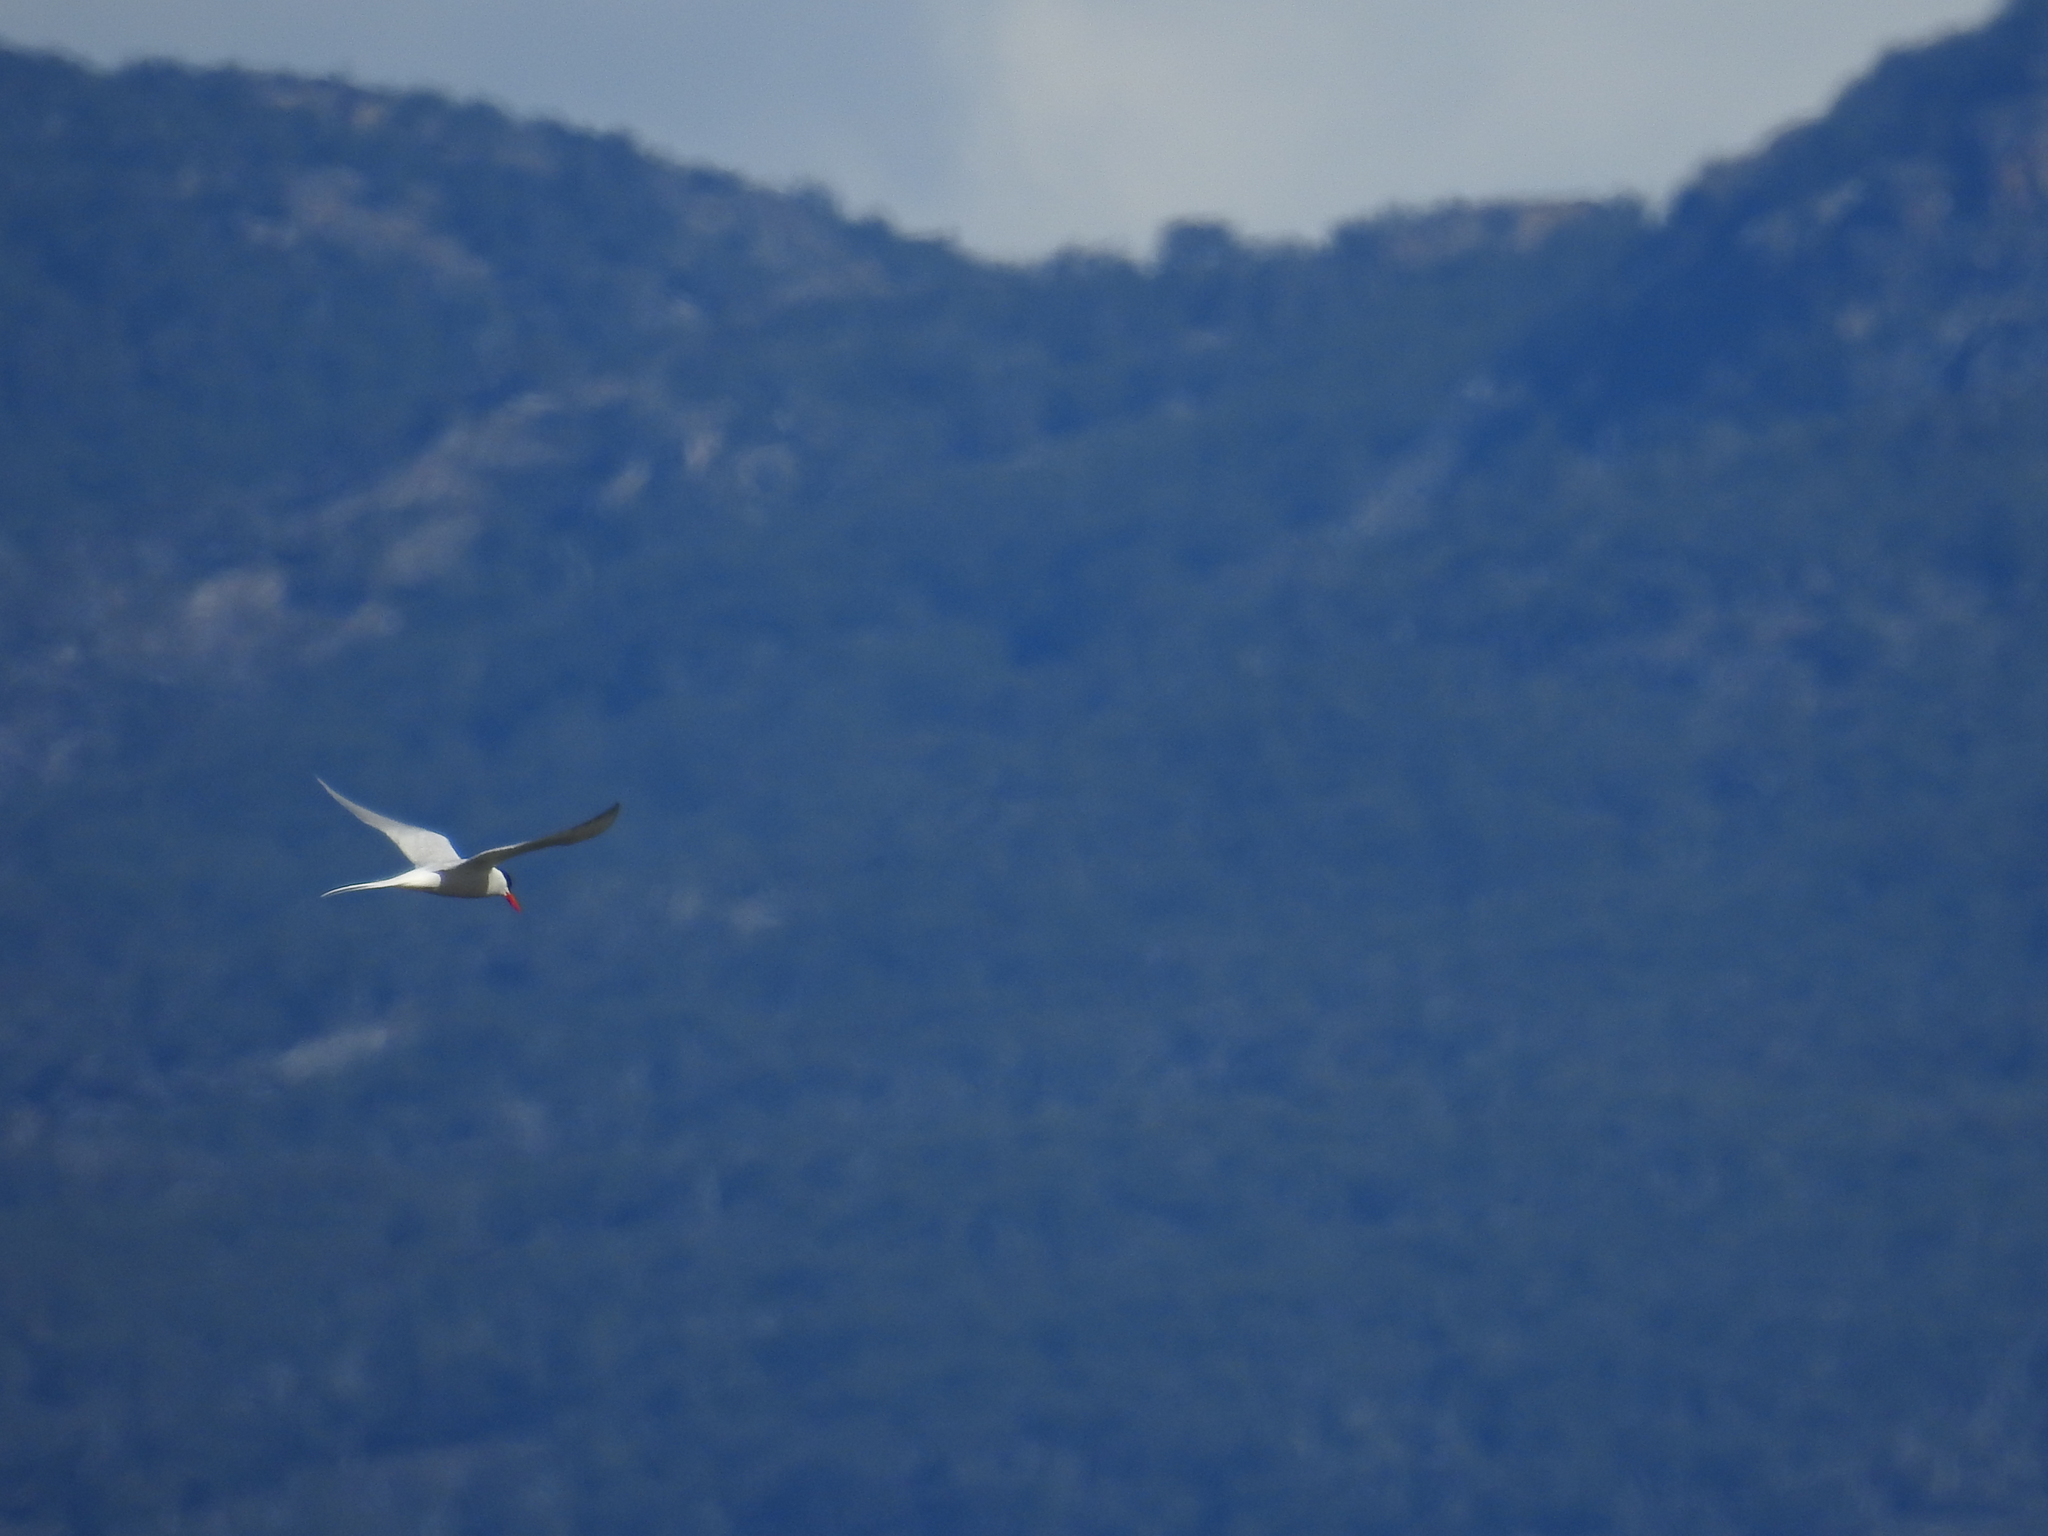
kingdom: Animalia
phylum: Chordata
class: Aves
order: Charadriiformes
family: Laridae
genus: Sterna
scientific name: Sterna hirundinacea
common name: South american tern
